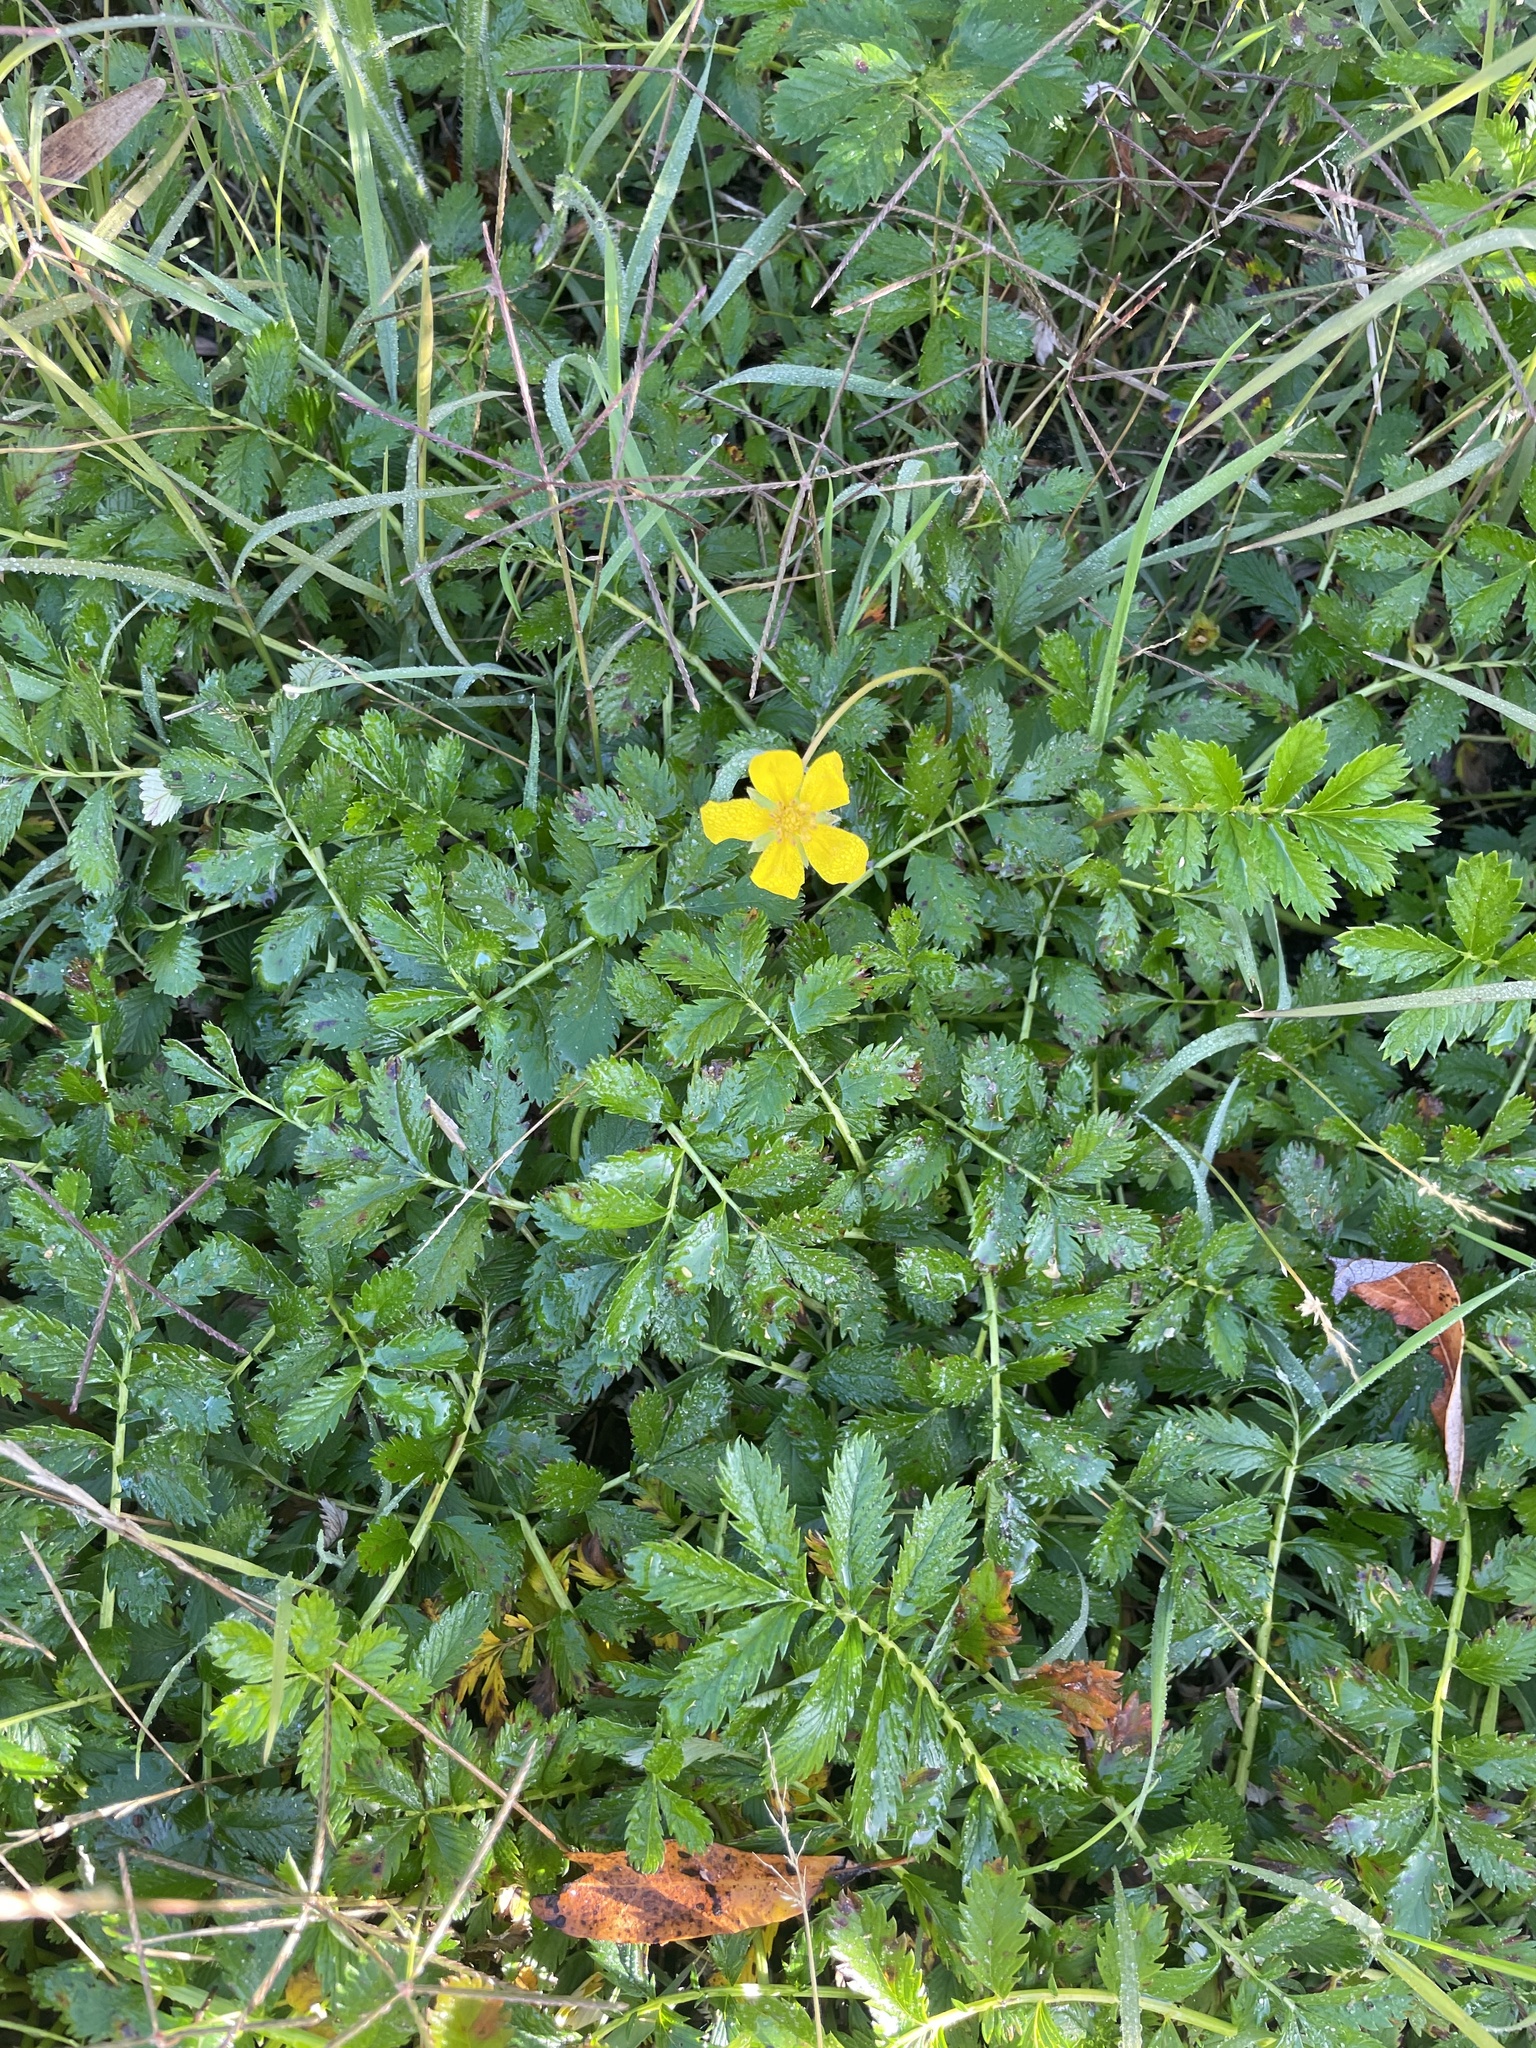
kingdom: Plantae
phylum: Tracheophyta
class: Magnoliopsida
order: Rosales
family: Rosaceae
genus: Argentina
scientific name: Argentina anserina
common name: Common silverweed
